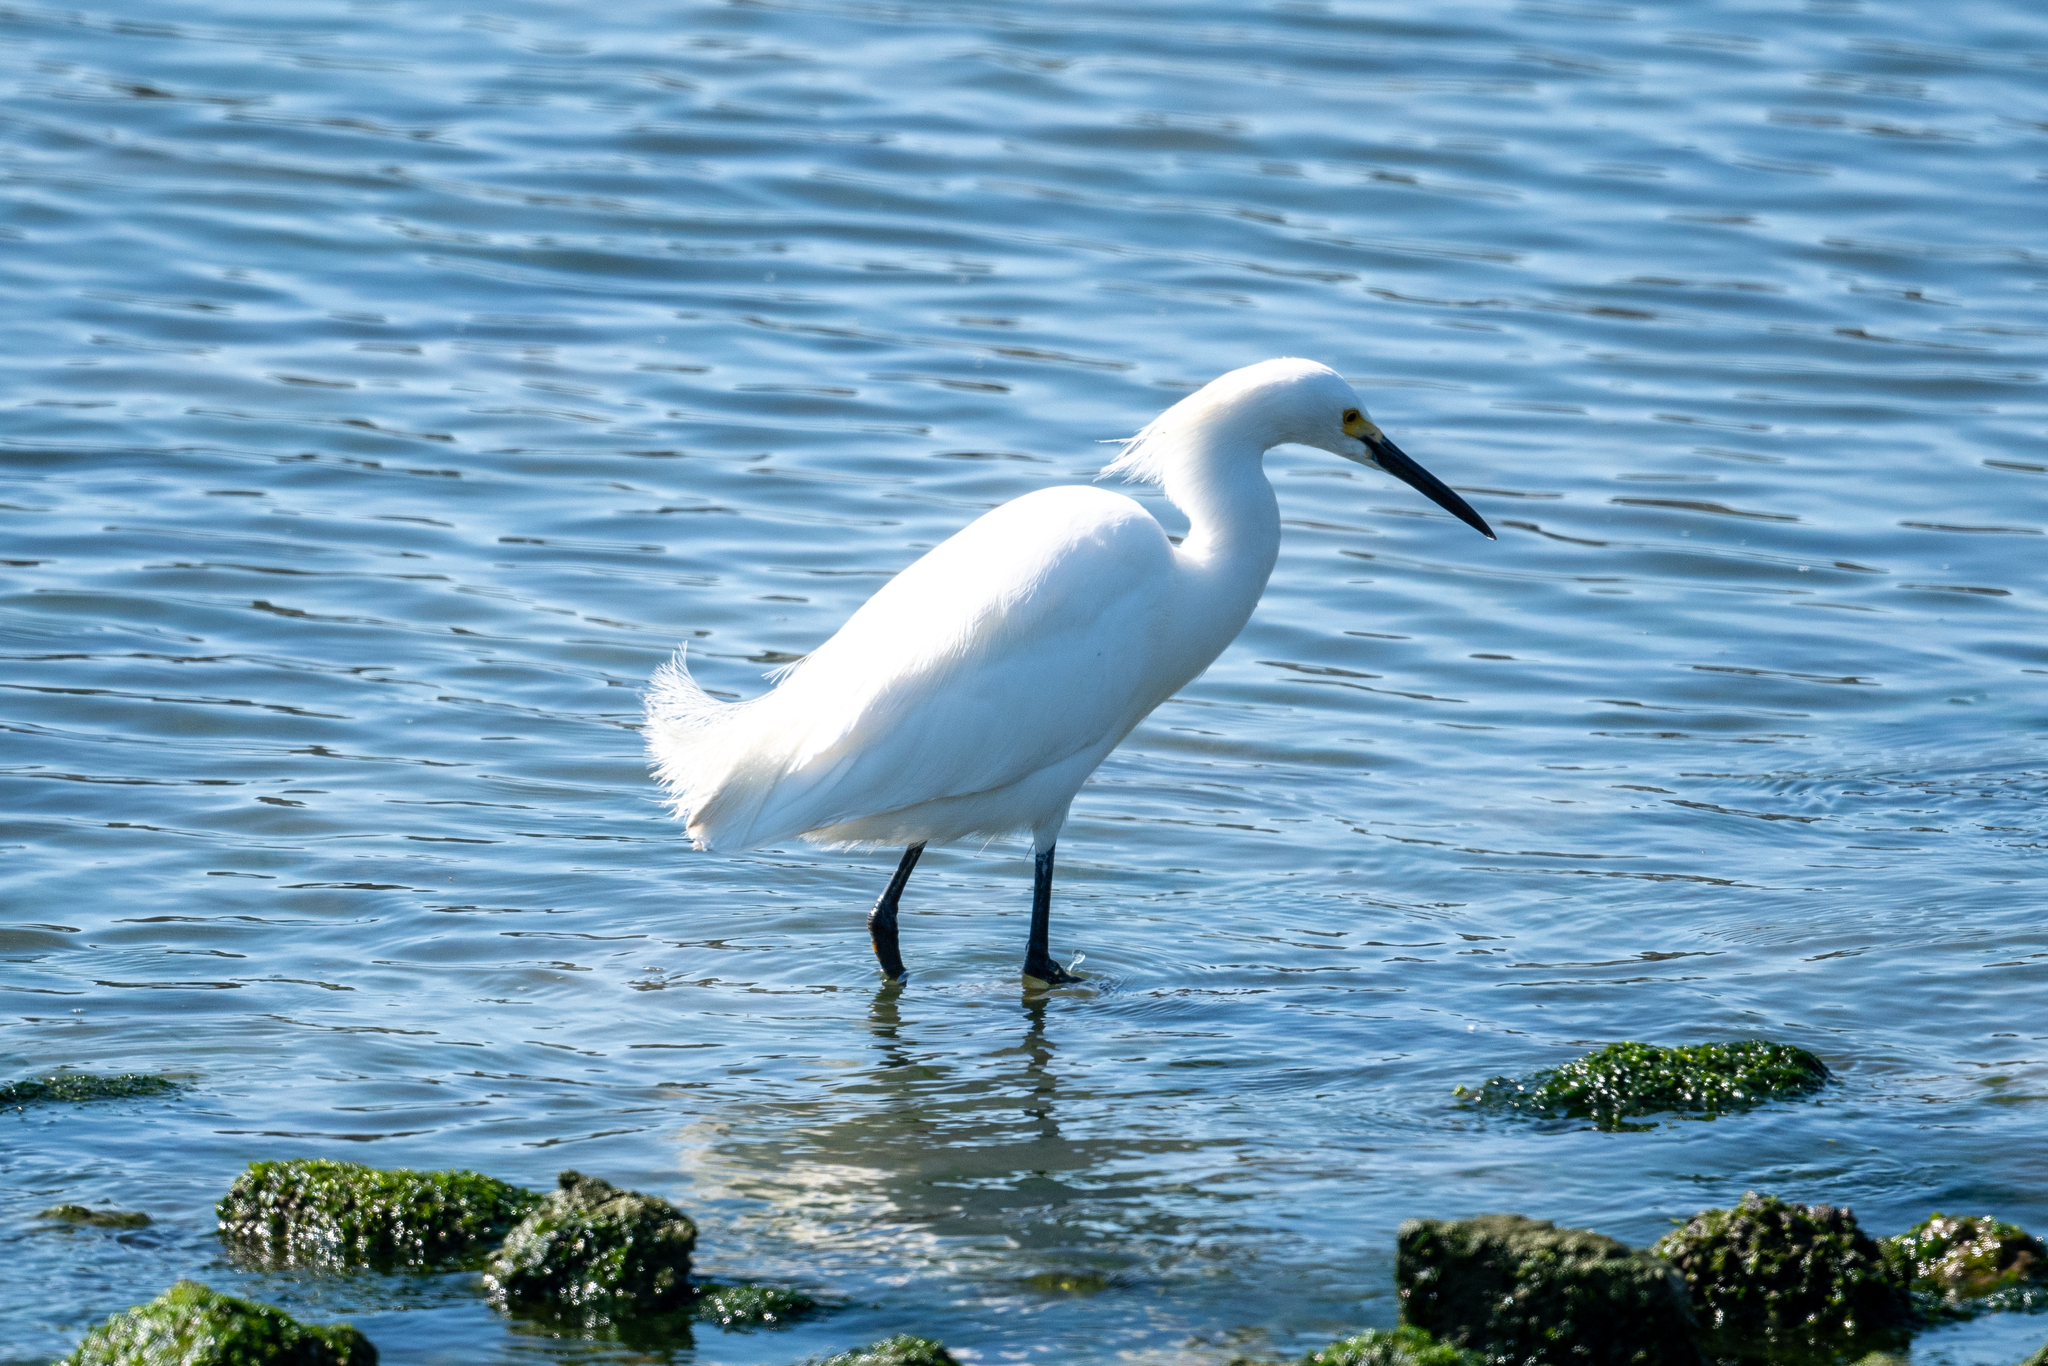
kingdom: Animalia
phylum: Chordata
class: Aves
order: Pelecaniformes
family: Ardeidae
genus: Egretta
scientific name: Egretta thula
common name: Snowy egret
